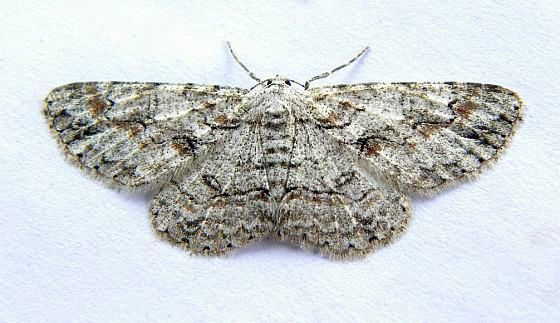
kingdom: Animalia
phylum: Arthropoda
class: Insecta
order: Lepidoptera
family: Geometridae
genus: Iridopsis
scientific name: Iridopsis defectaria
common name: Brown-shaded gray
